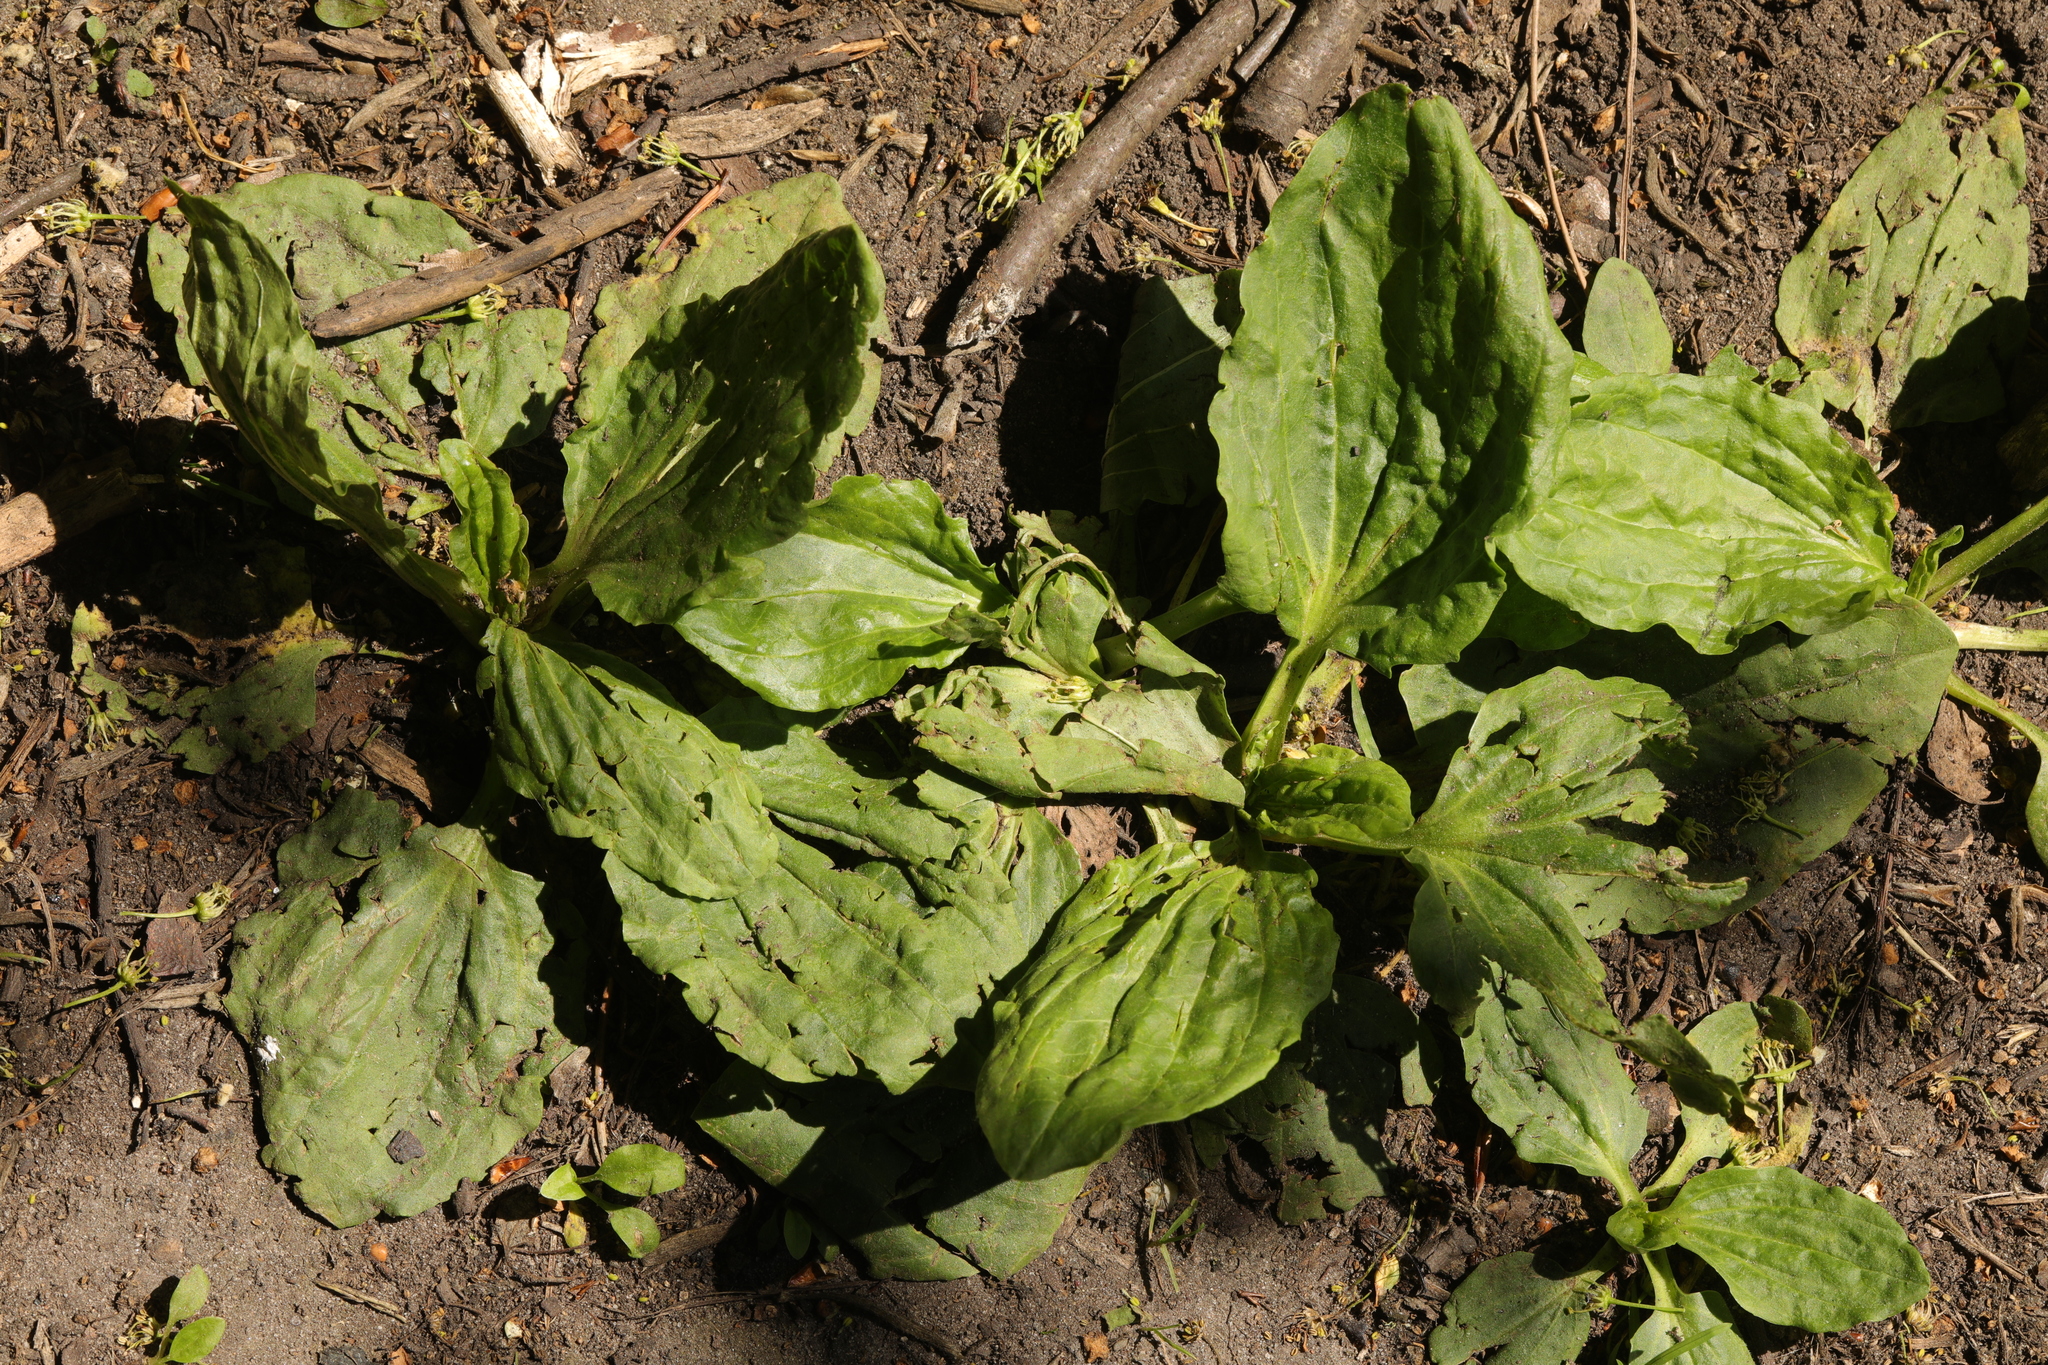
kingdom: Plantae
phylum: Tracheophyta
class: Magnoliopsida
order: Lamiales
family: Plantaginaceae
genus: Plantago
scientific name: Plantago major
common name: Common plantain
